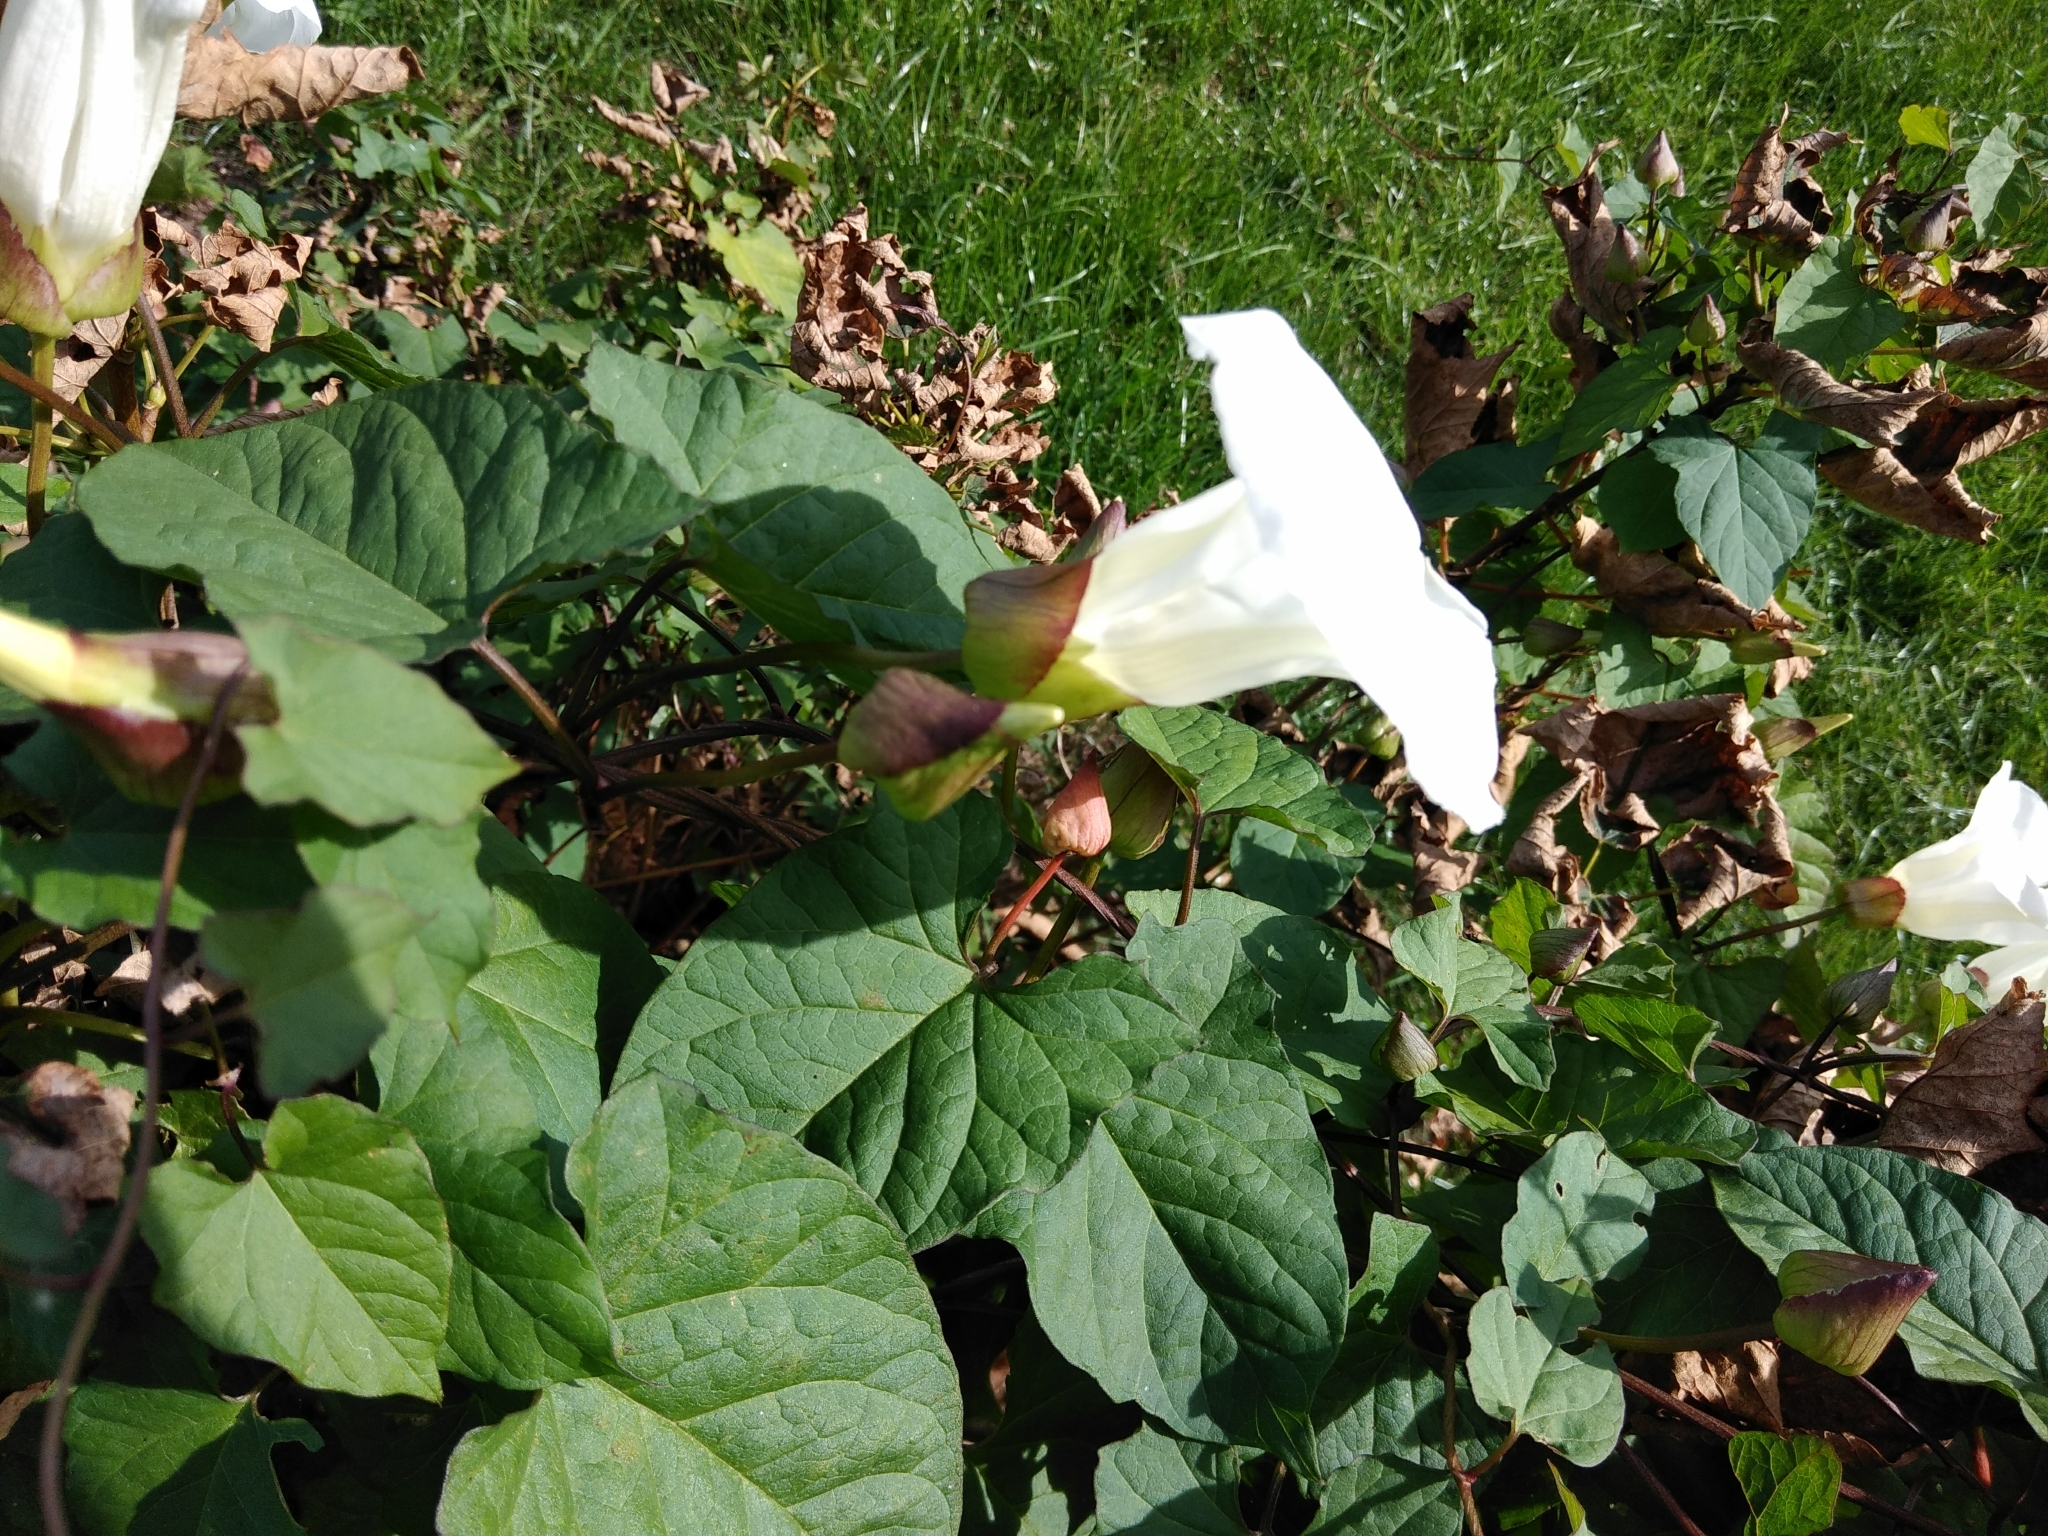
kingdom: Plantae
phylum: Tracheophyta
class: Magnoliopsida
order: Solanales
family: Convolvulaceae
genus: Calystegia
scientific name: Calystegia silvatica
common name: Large bindweed
